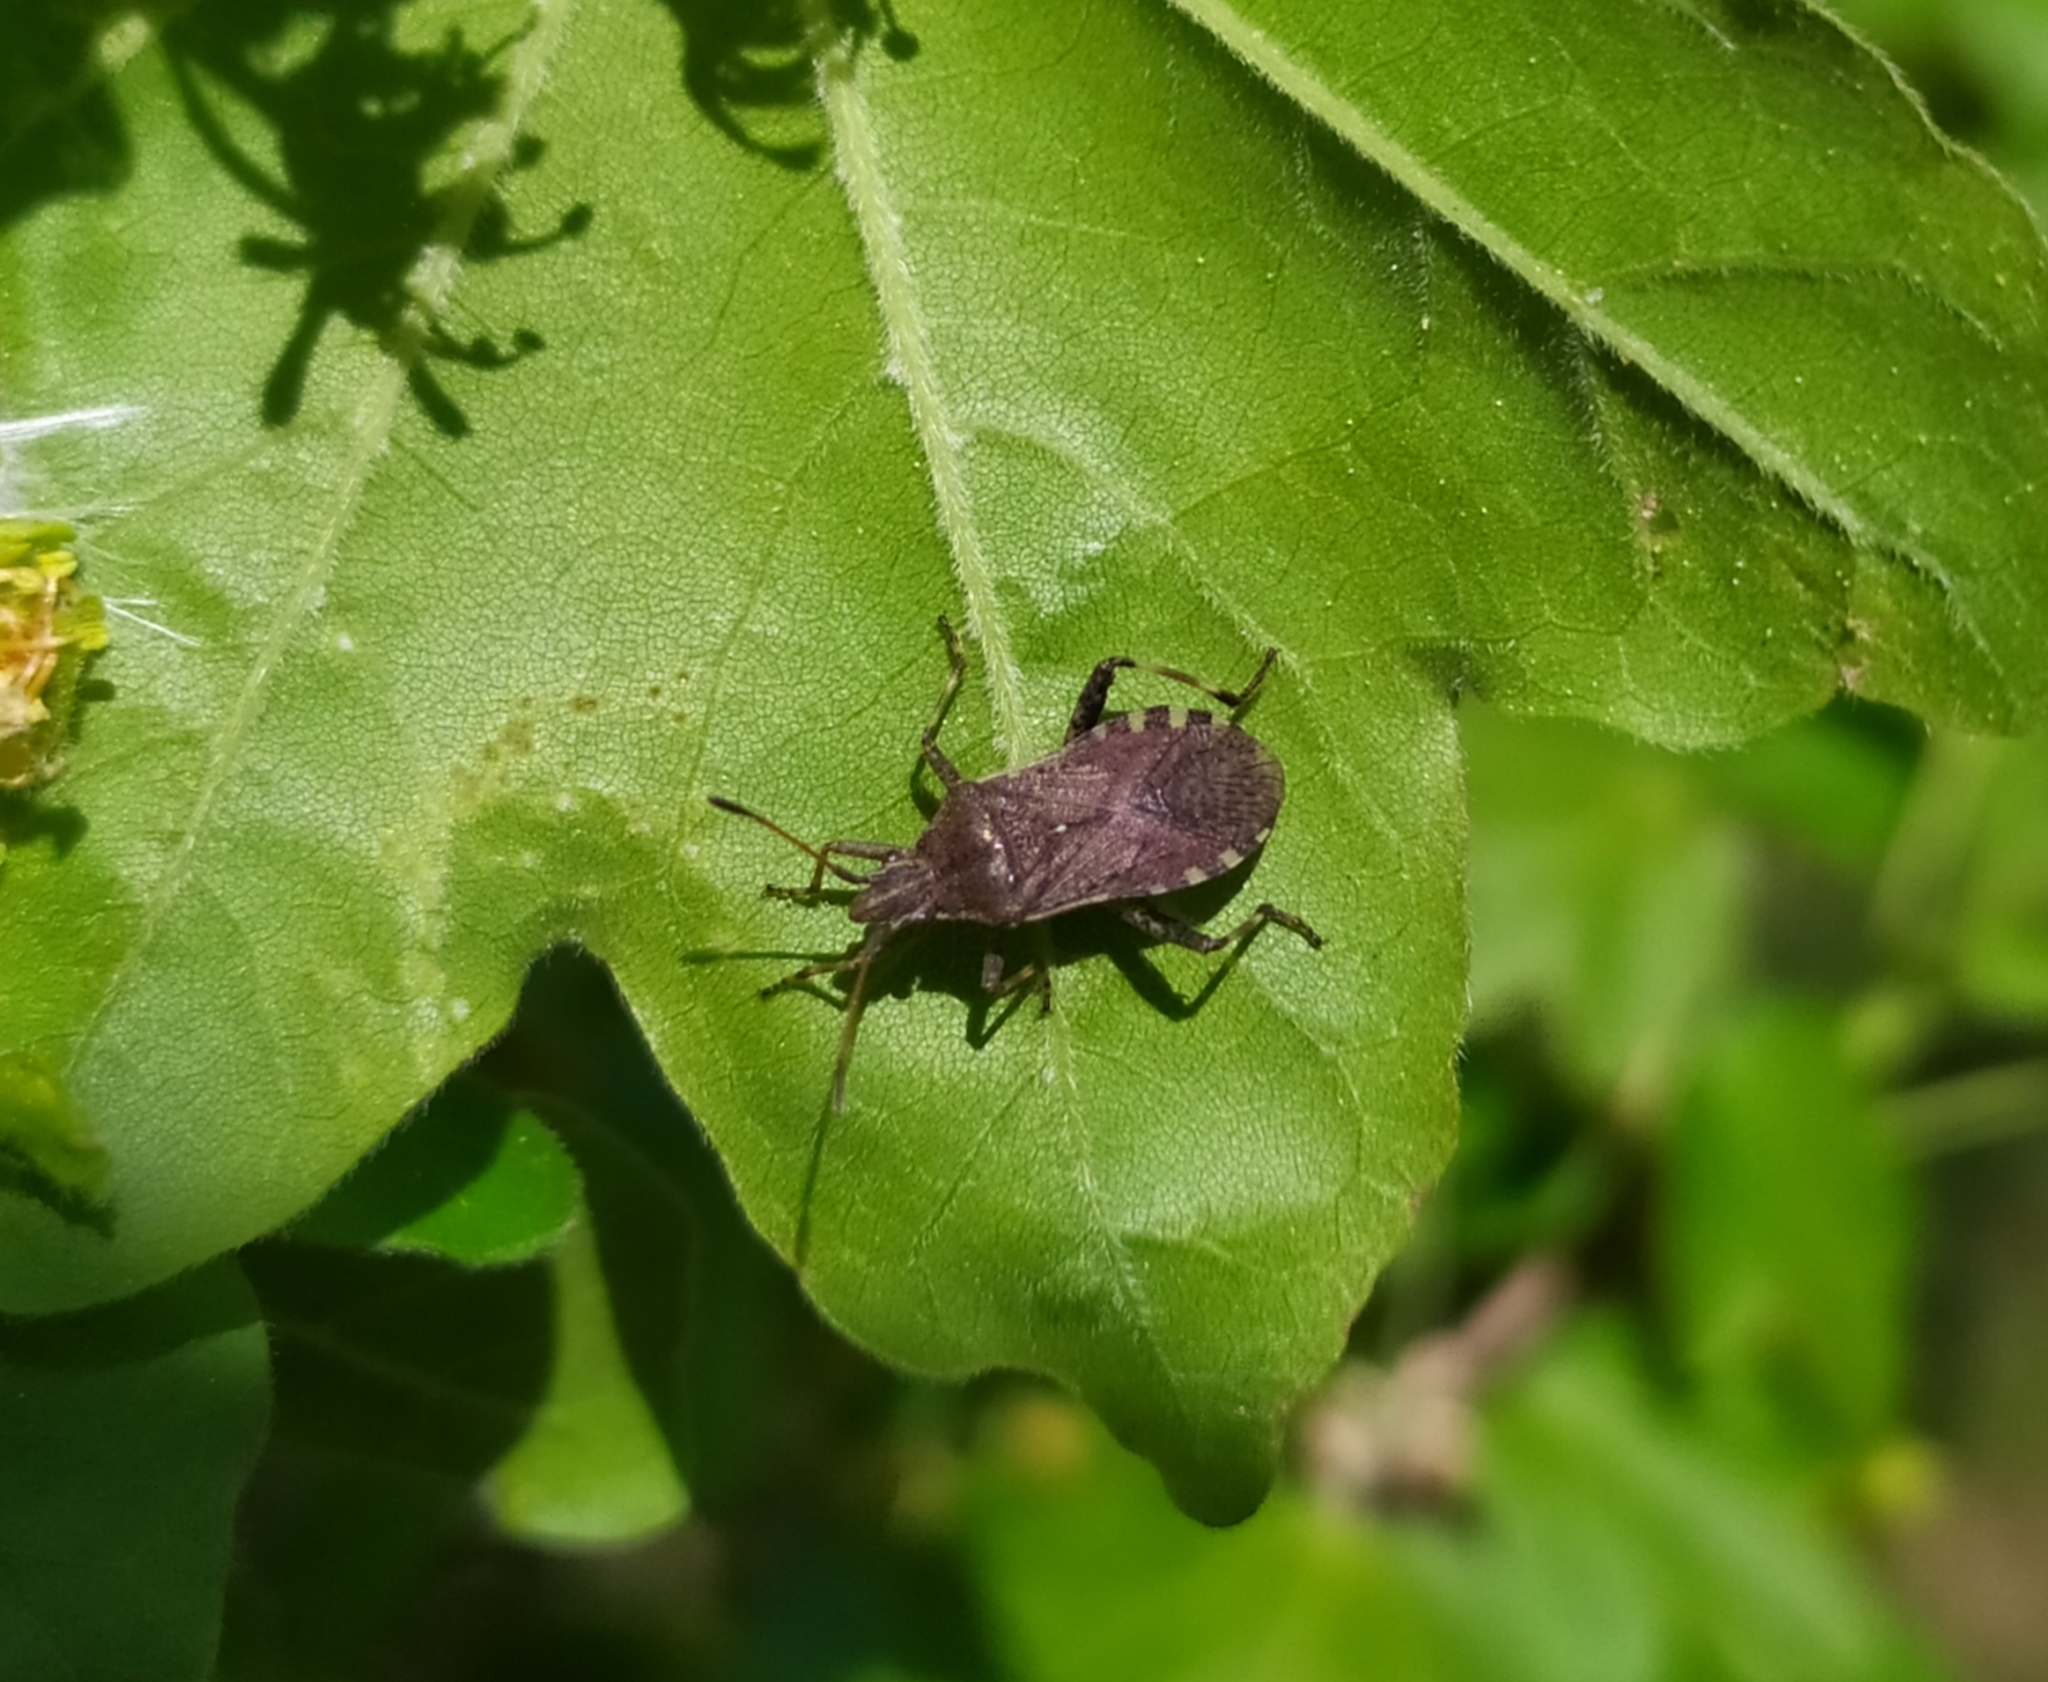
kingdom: Animalia
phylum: Arthropoda
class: Insecta
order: Hemiptera
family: Coreidae
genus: Ceraleptus
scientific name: Ceraleptus gracilicornis
